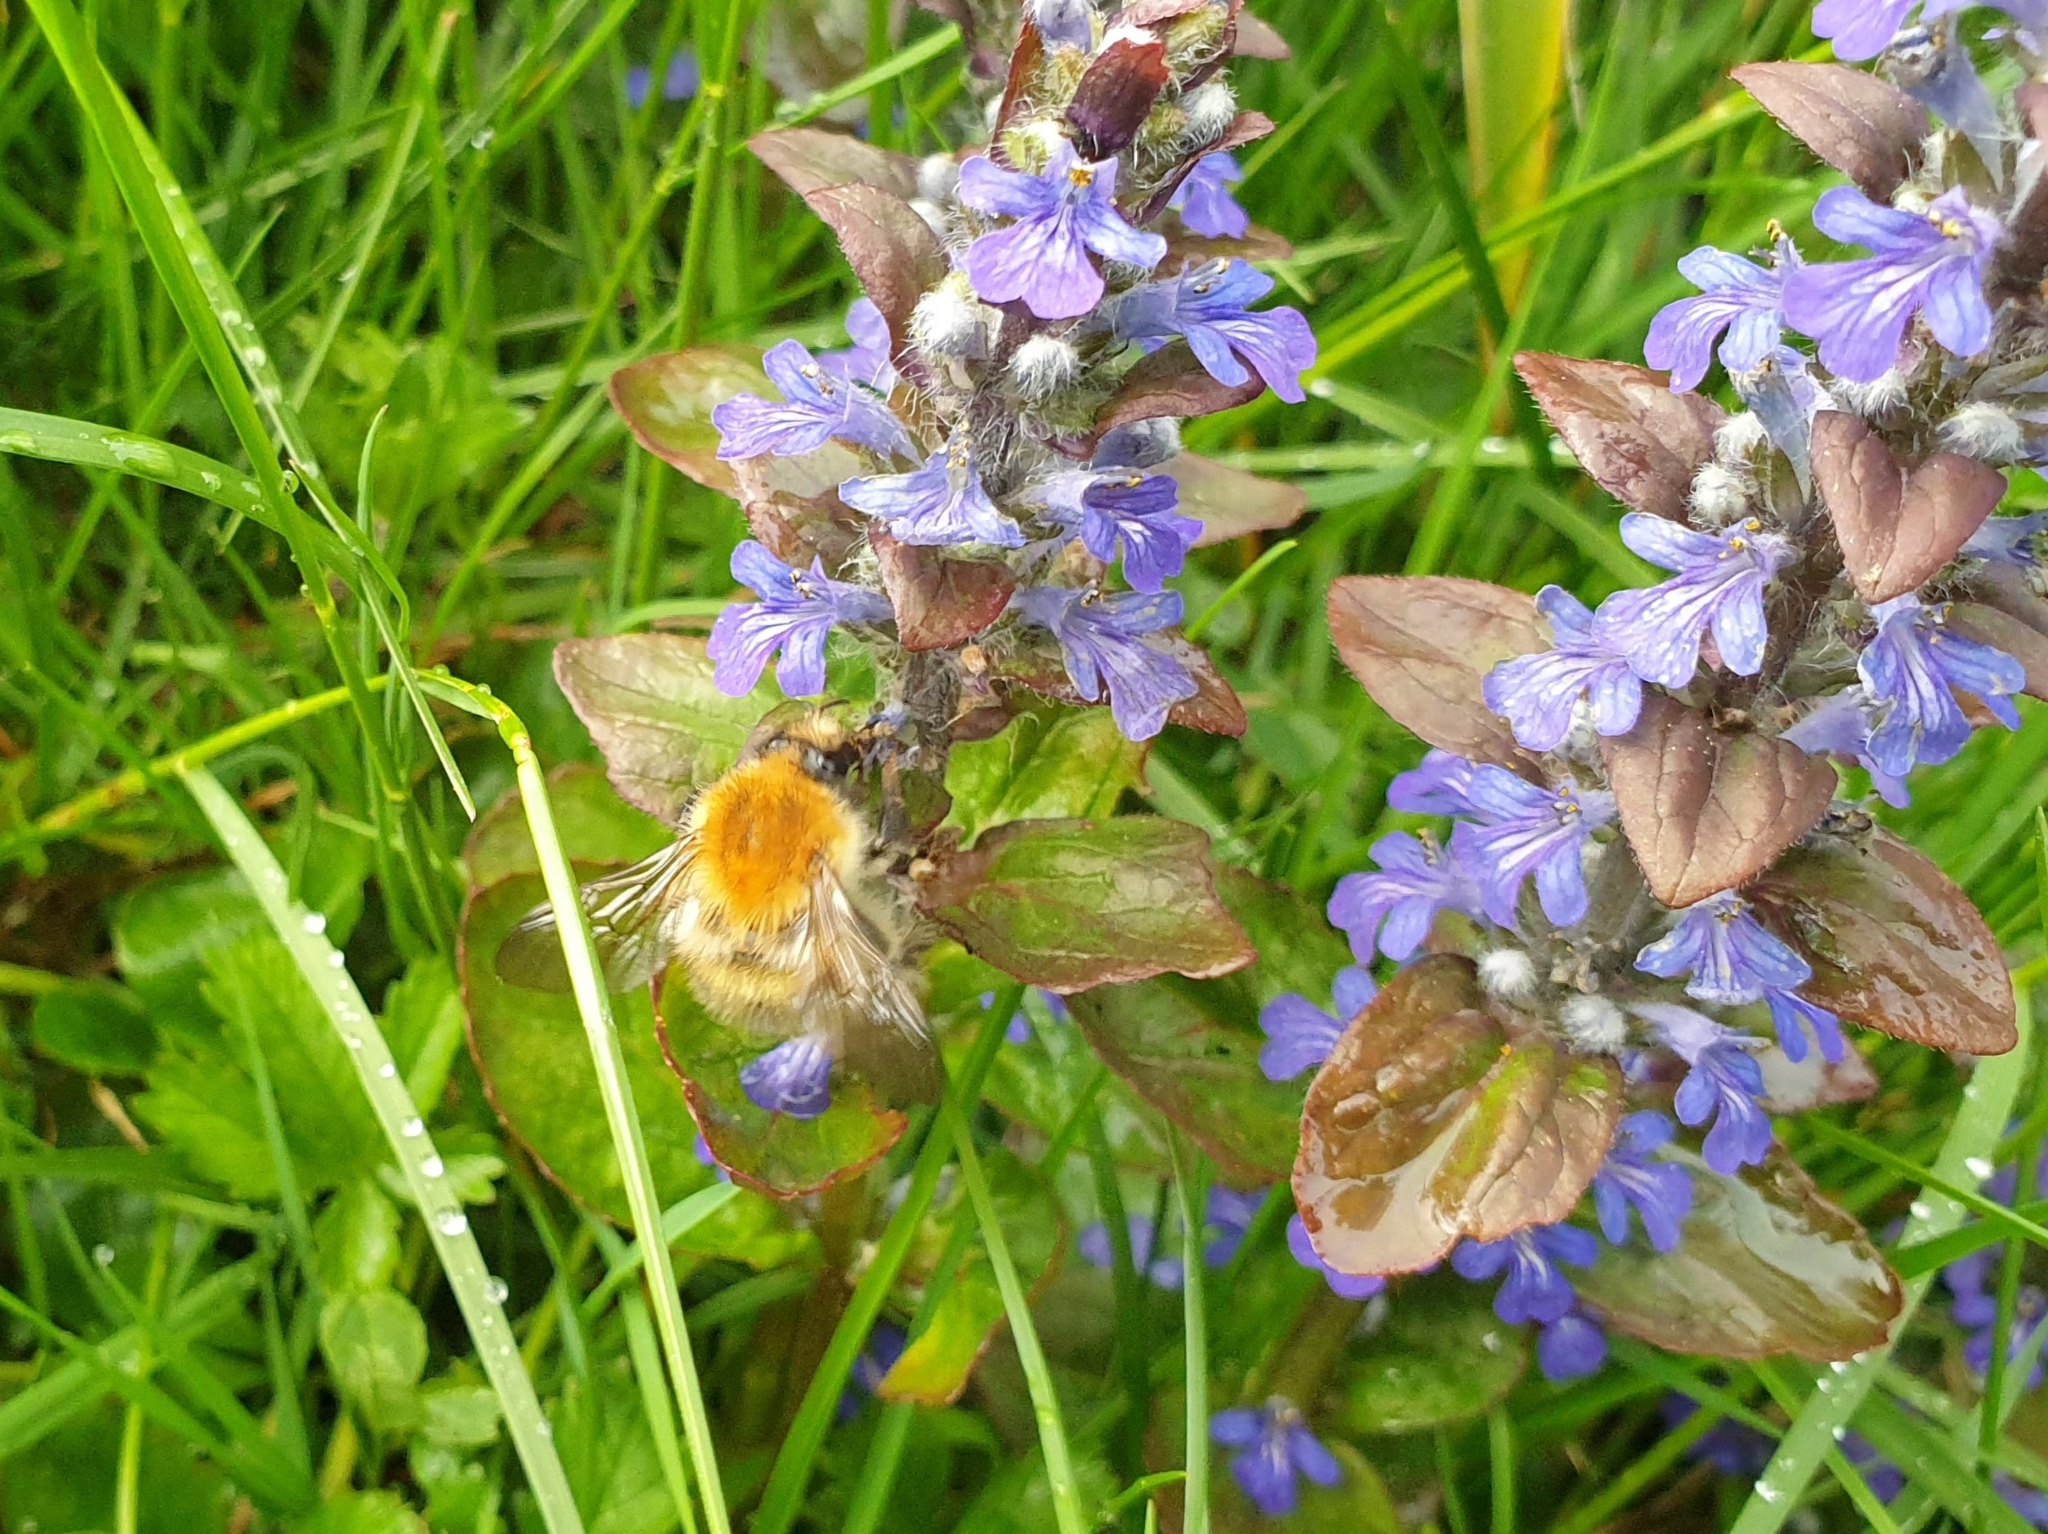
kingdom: Plantae
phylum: Tracheophyta
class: Magnoliopsida
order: Lamiales
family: Lamiaceae
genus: Ajuga
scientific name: Ajuga reptans
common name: Bugle
